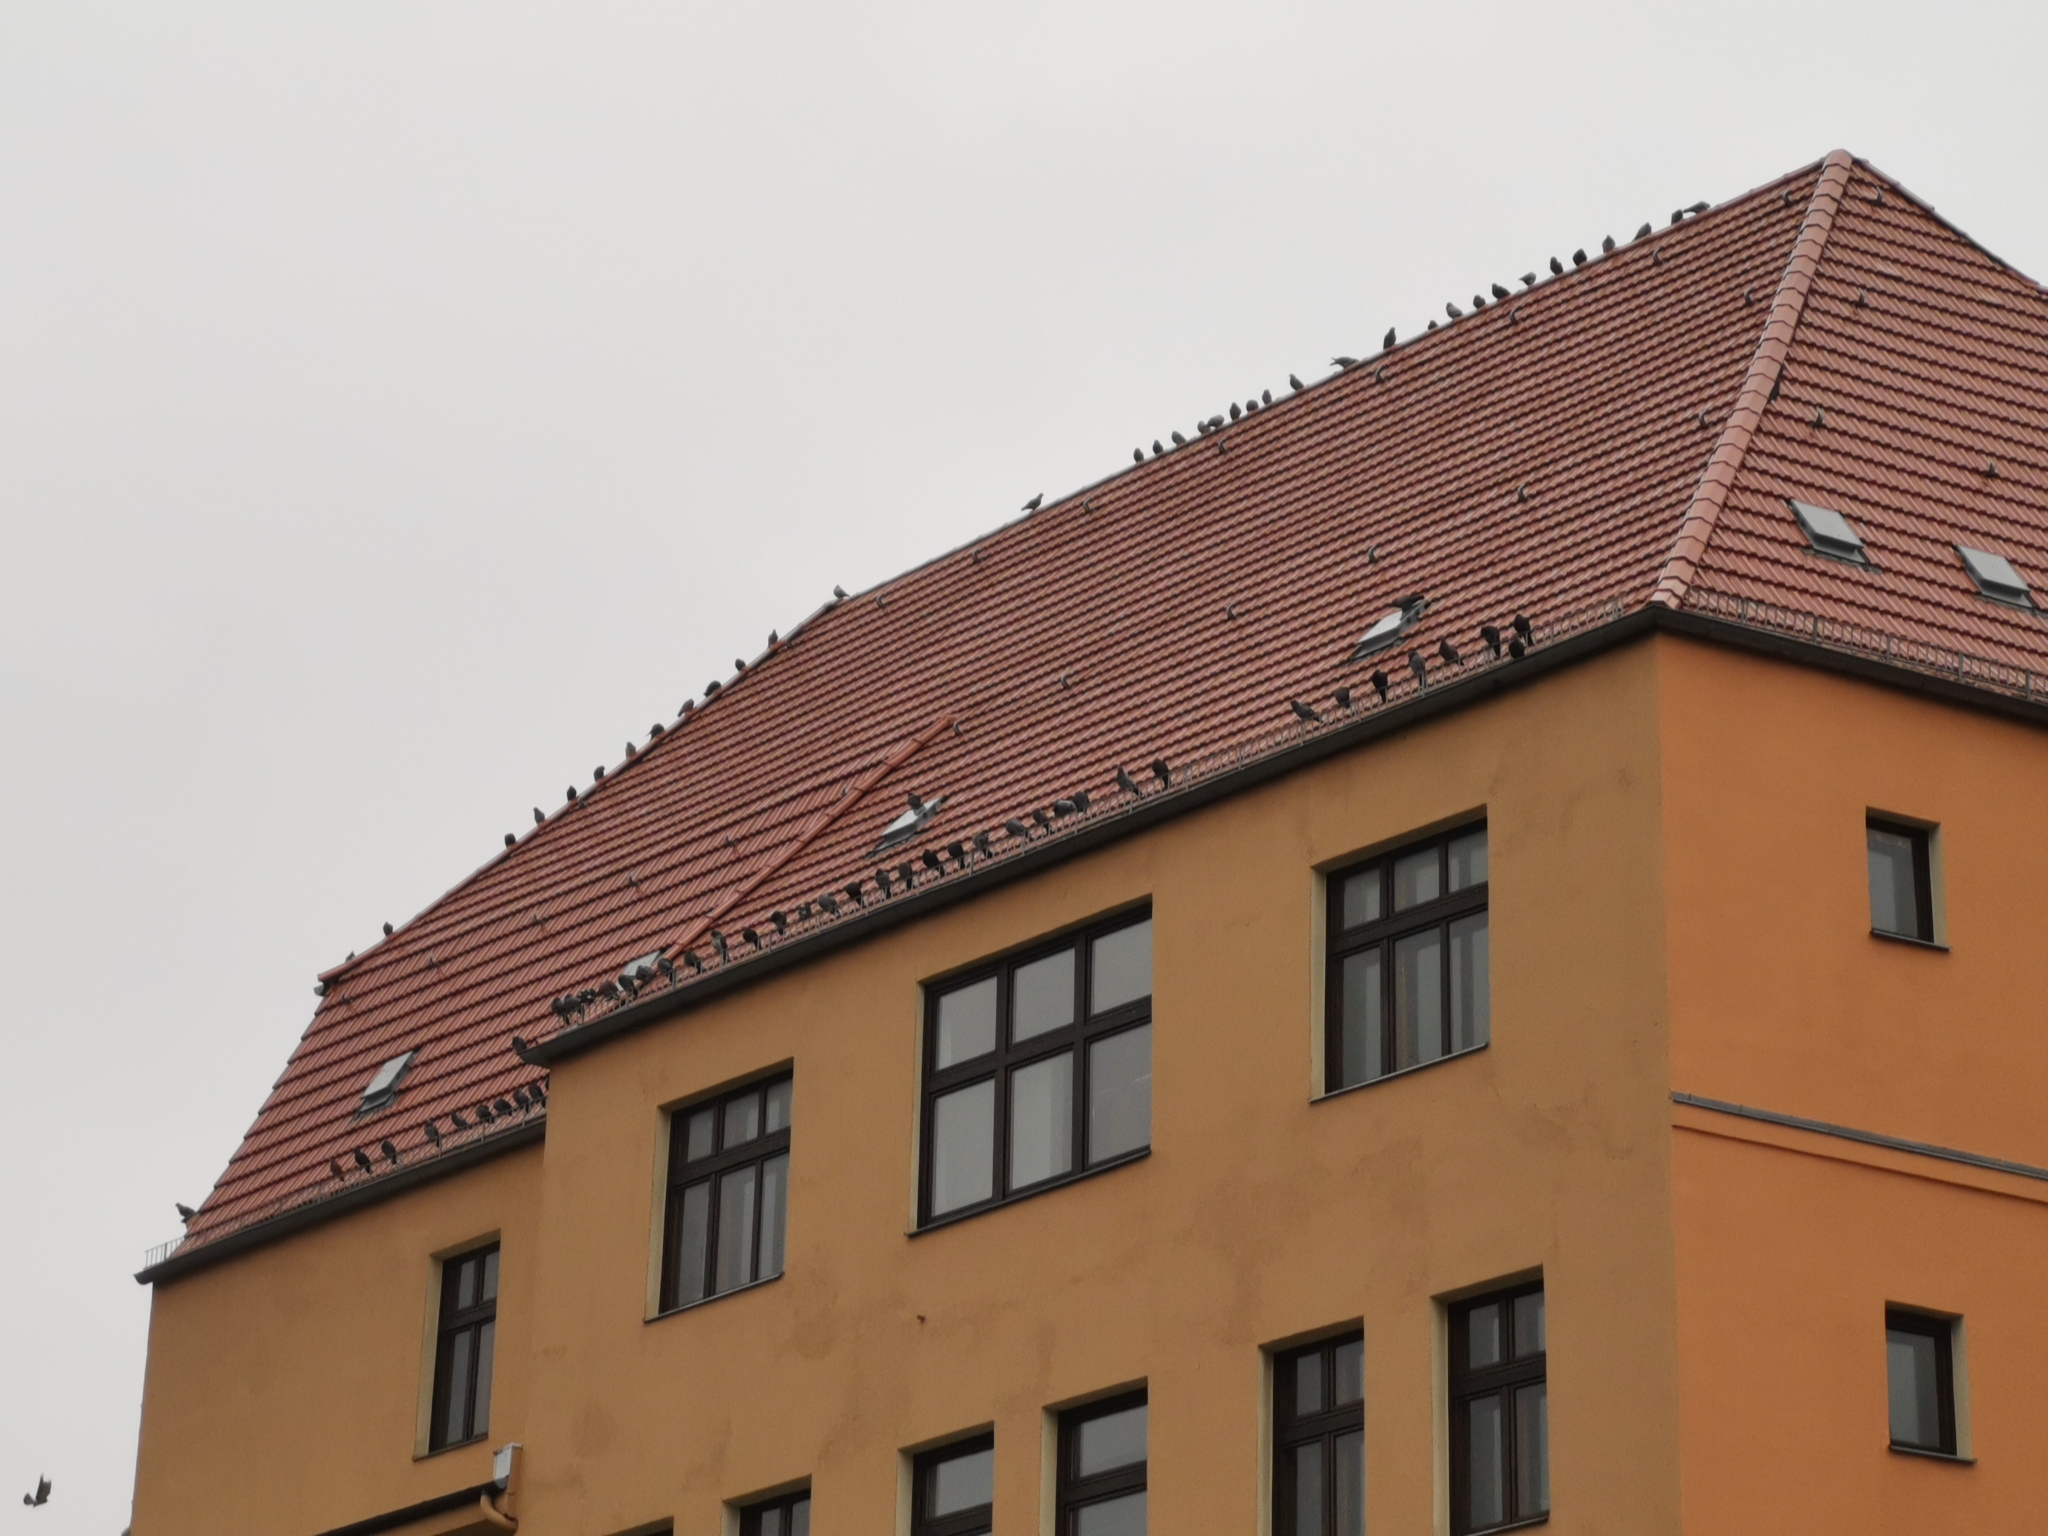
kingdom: Animalia
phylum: Chordata
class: Aves
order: Columbiformes
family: Columbidae
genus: Columba
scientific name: Columba livia
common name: Rock pigeon
